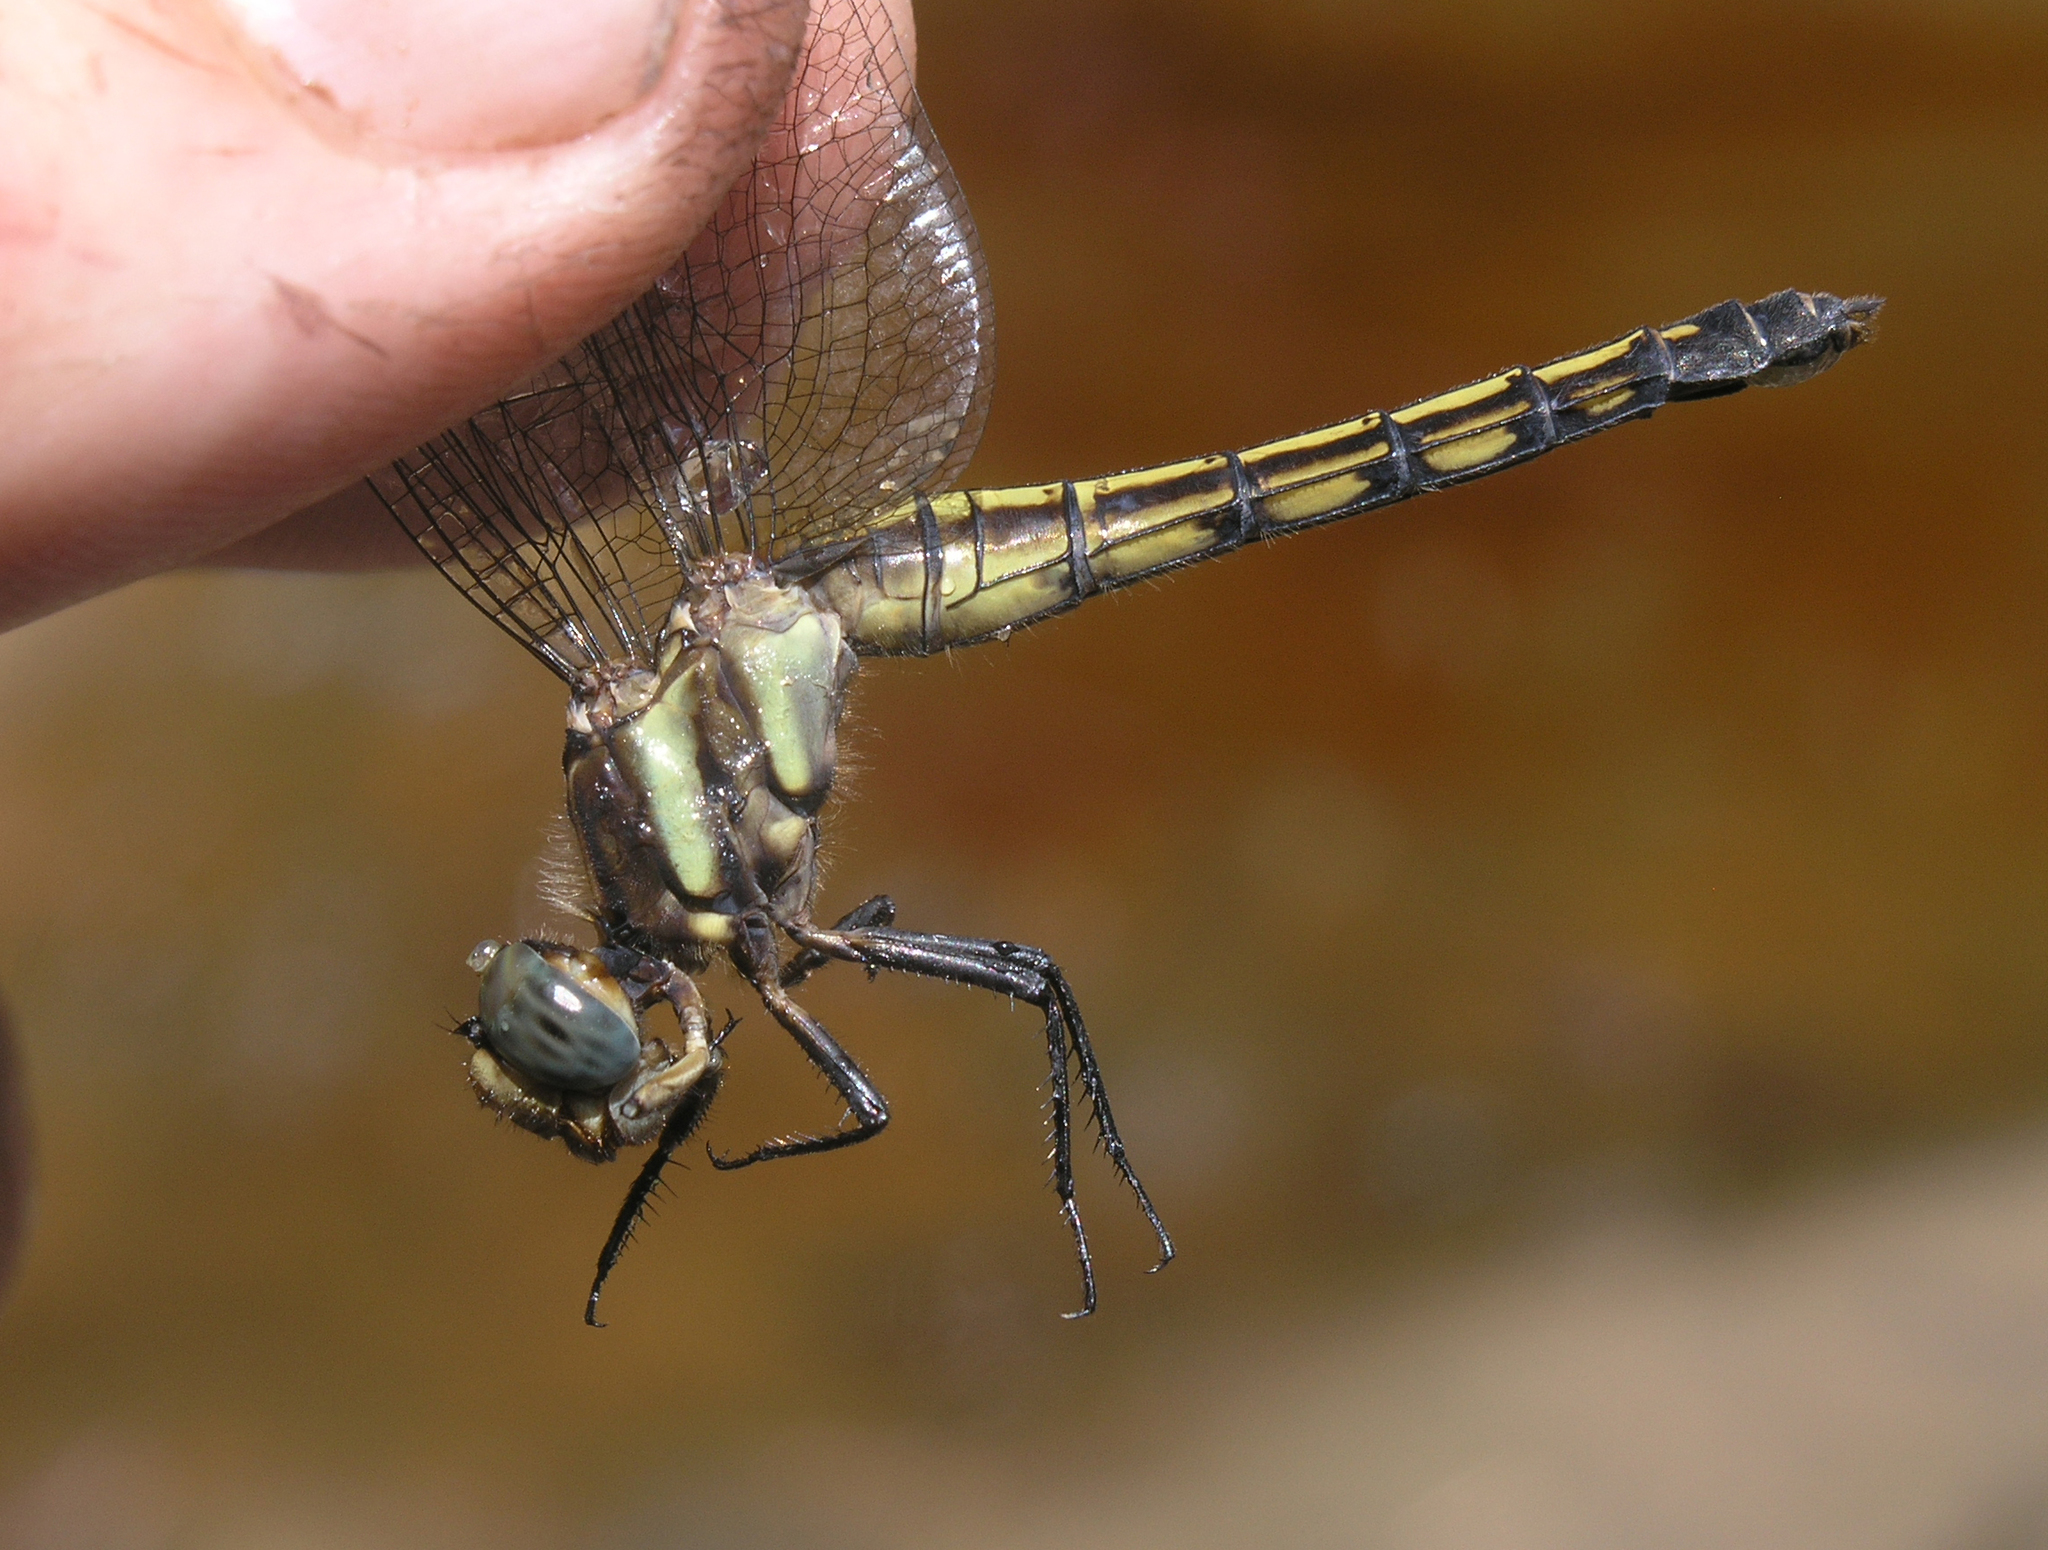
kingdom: Animalia
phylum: Arthropoda
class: Insecta
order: Odonata
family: Libellulidae
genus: Orthetrum
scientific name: Orthetrum glaucum
